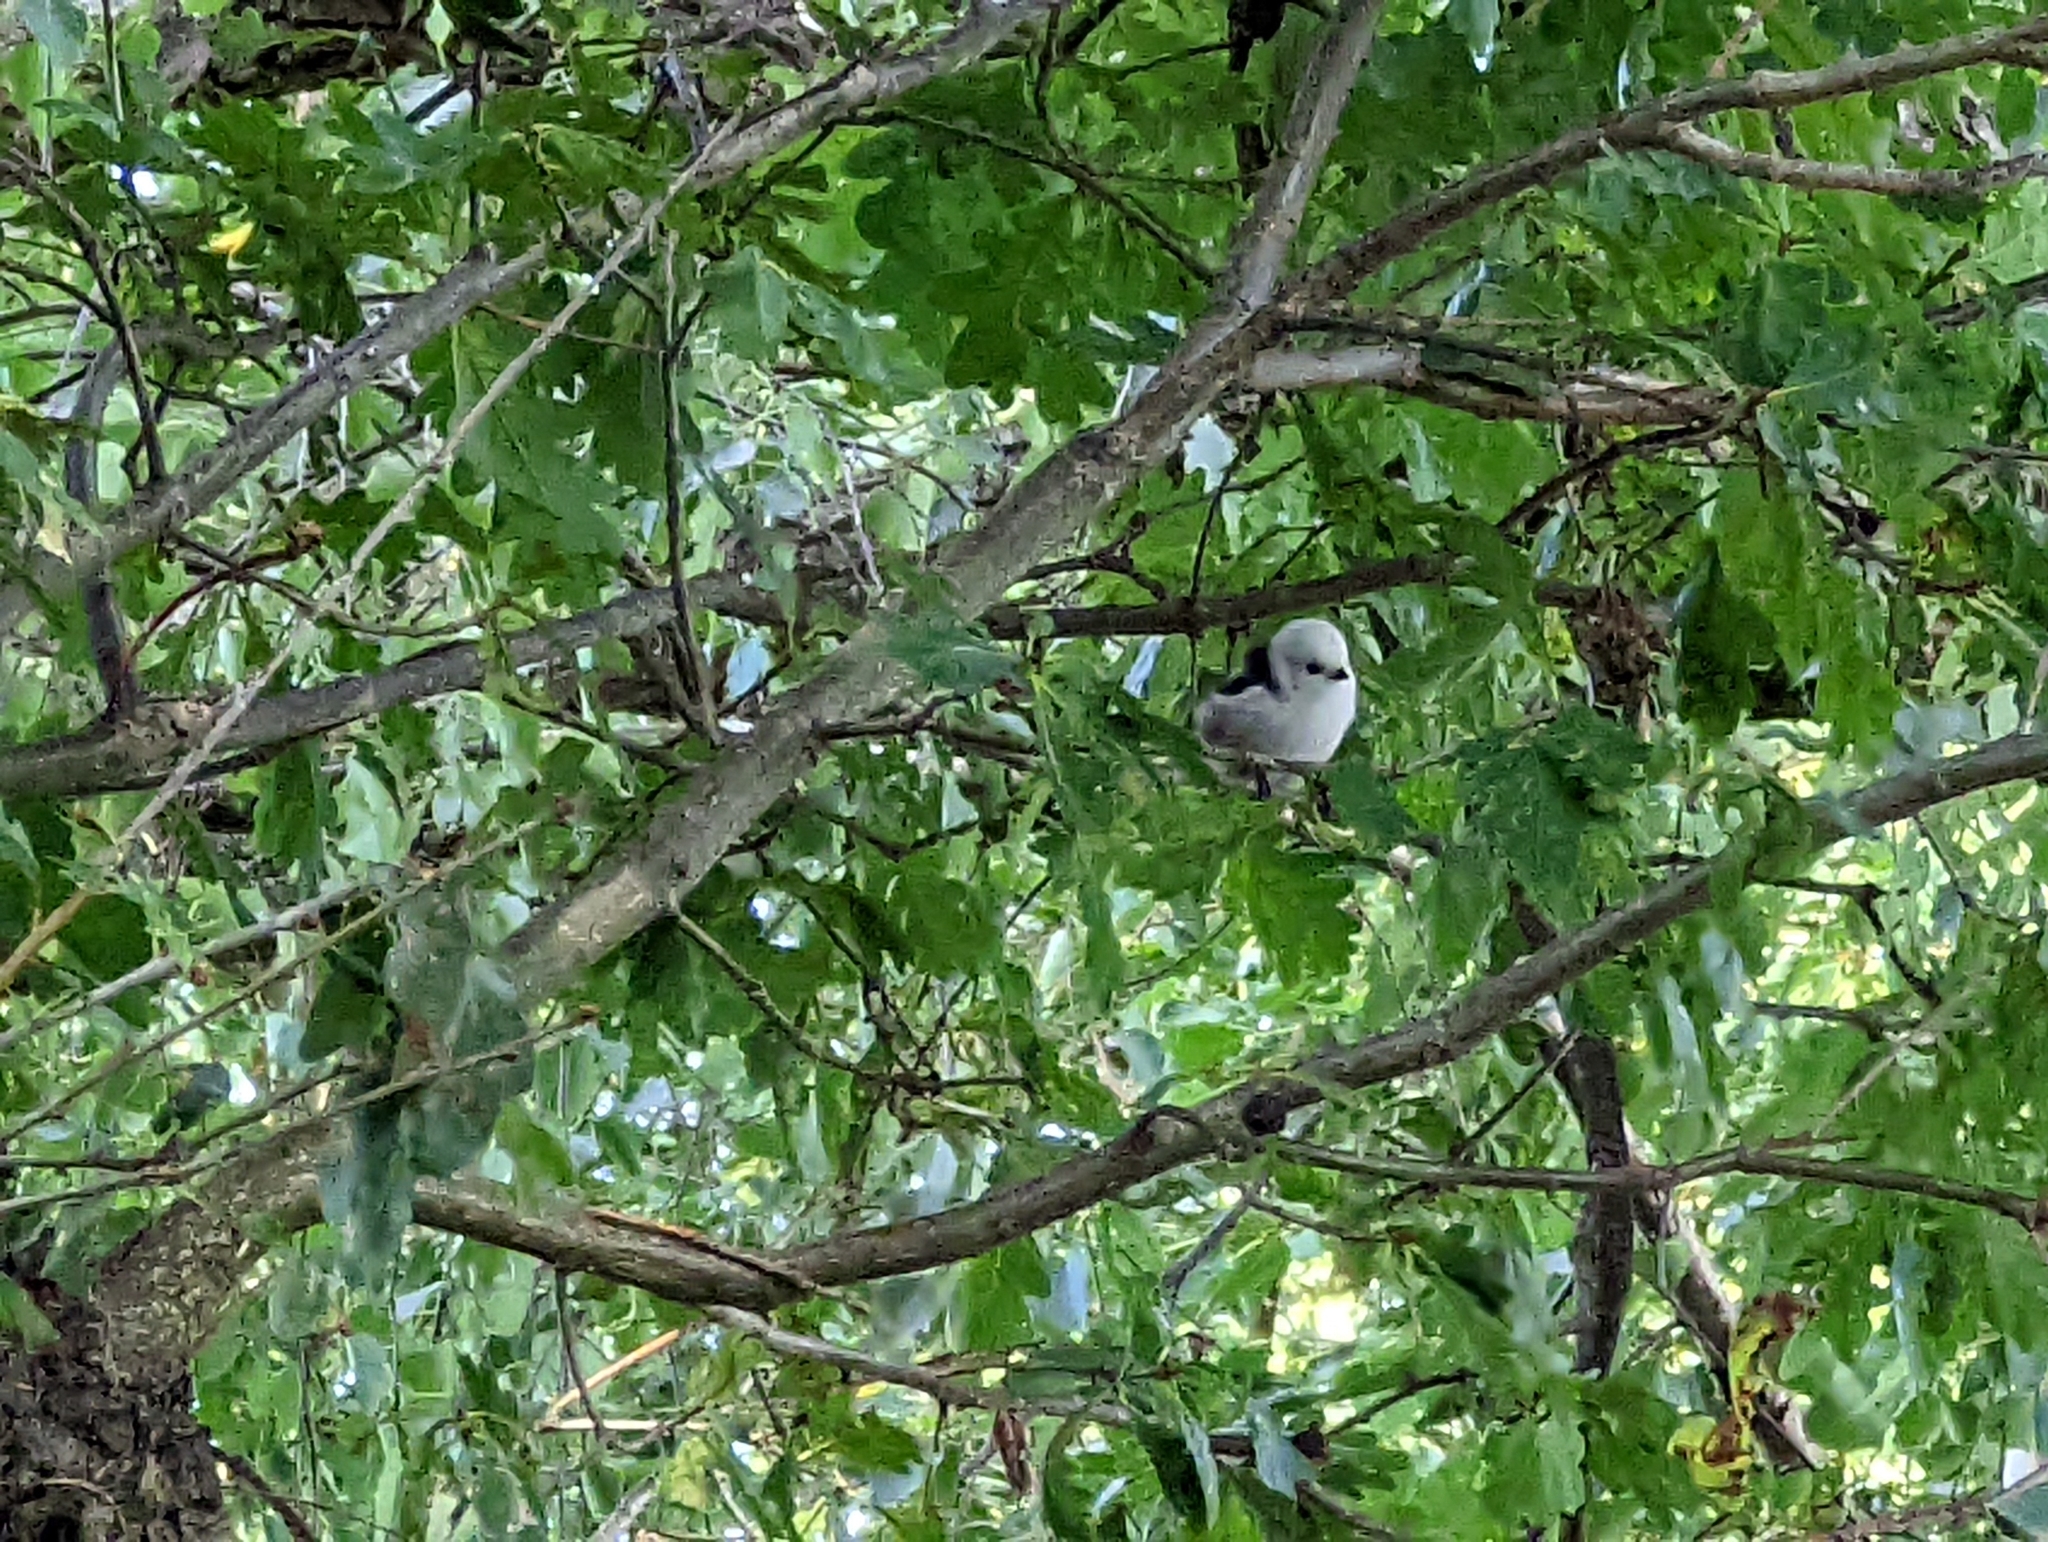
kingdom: Animalia
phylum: Chordata
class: Aves
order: Passeriformes
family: Aegithalidae
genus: Aegithalos
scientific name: Aegithalos caudatus
